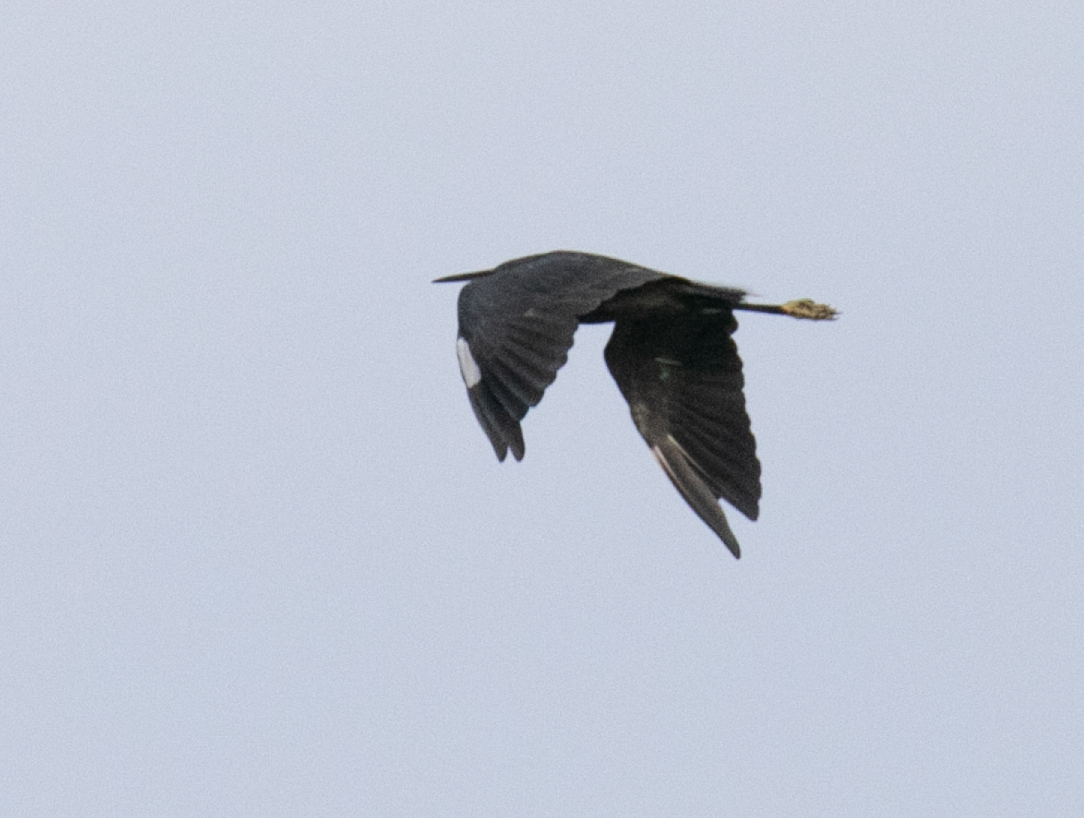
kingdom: Animalia
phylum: Chordata
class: Aves
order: Pelecaniformes
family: Ardeidae
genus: Egretta
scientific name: Egretta gularis
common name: Western reef-heron
